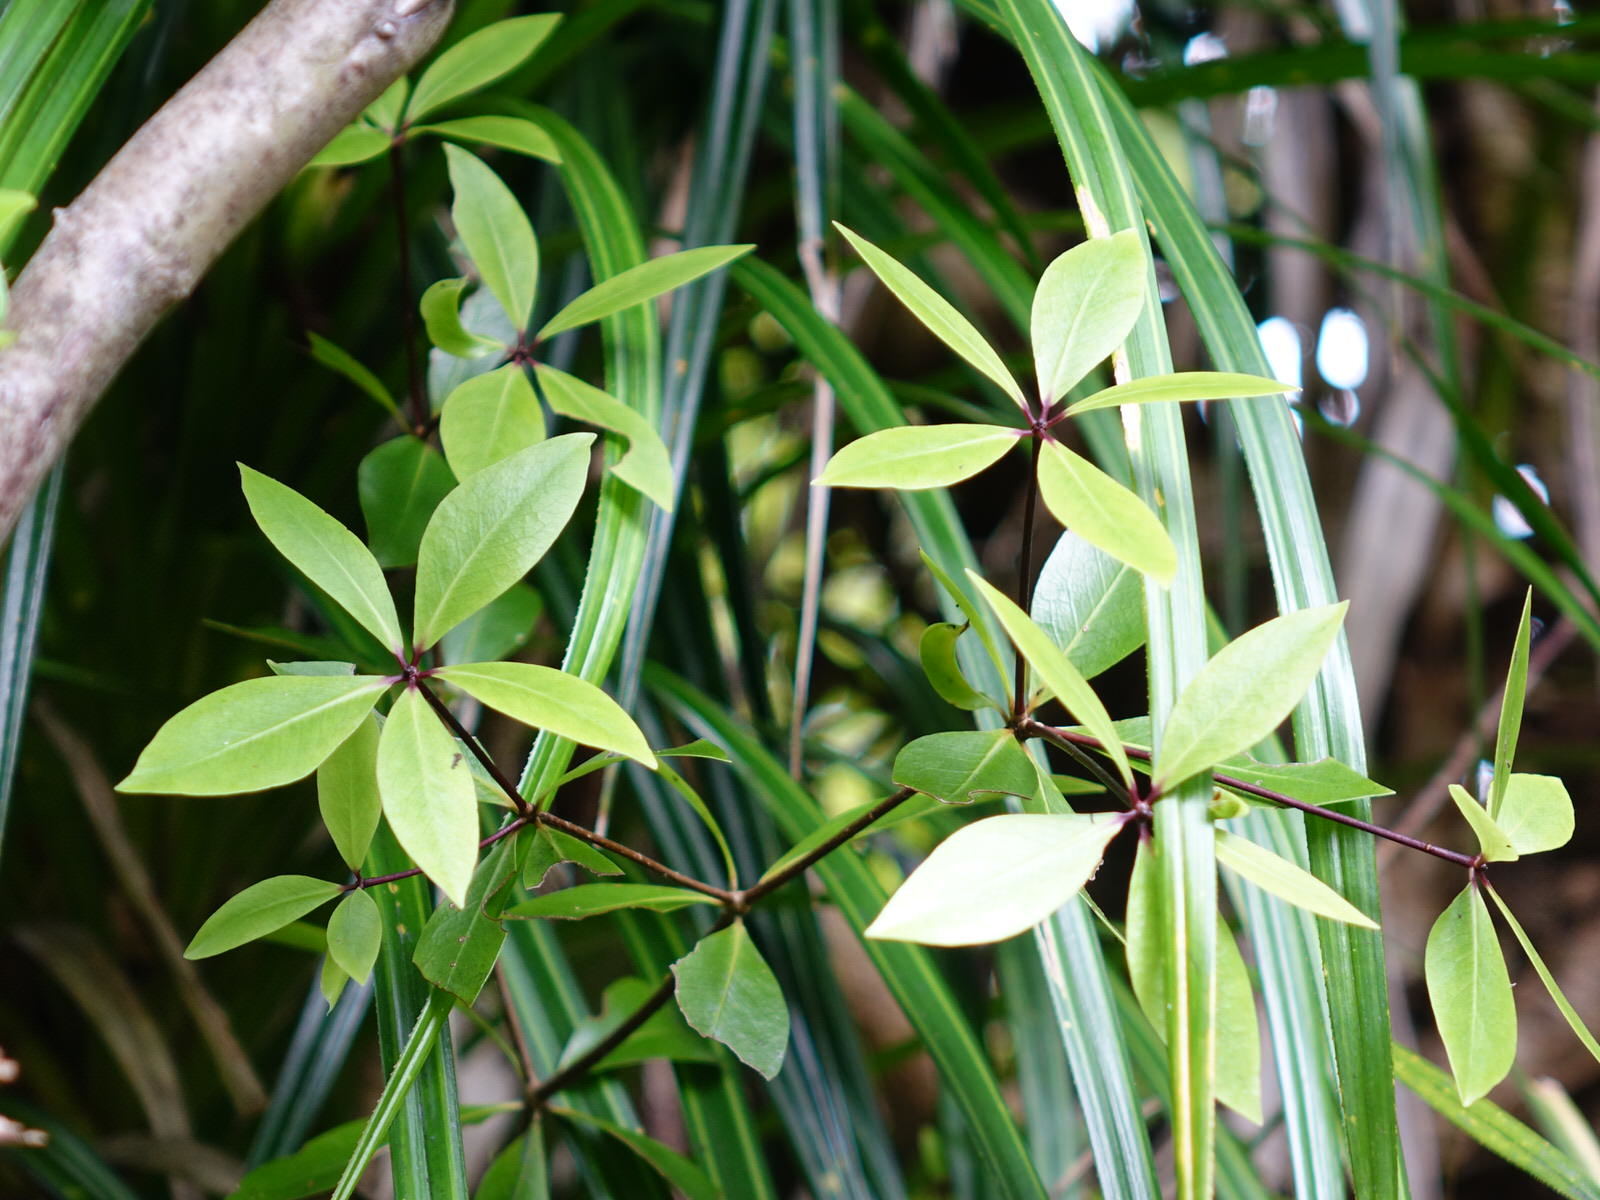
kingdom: Plantae
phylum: Tracheophyta
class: Magnoliopsida
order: Apiales
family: Pittosporaceae
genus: Pittosporum
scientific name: Pittosporum cornifolium
